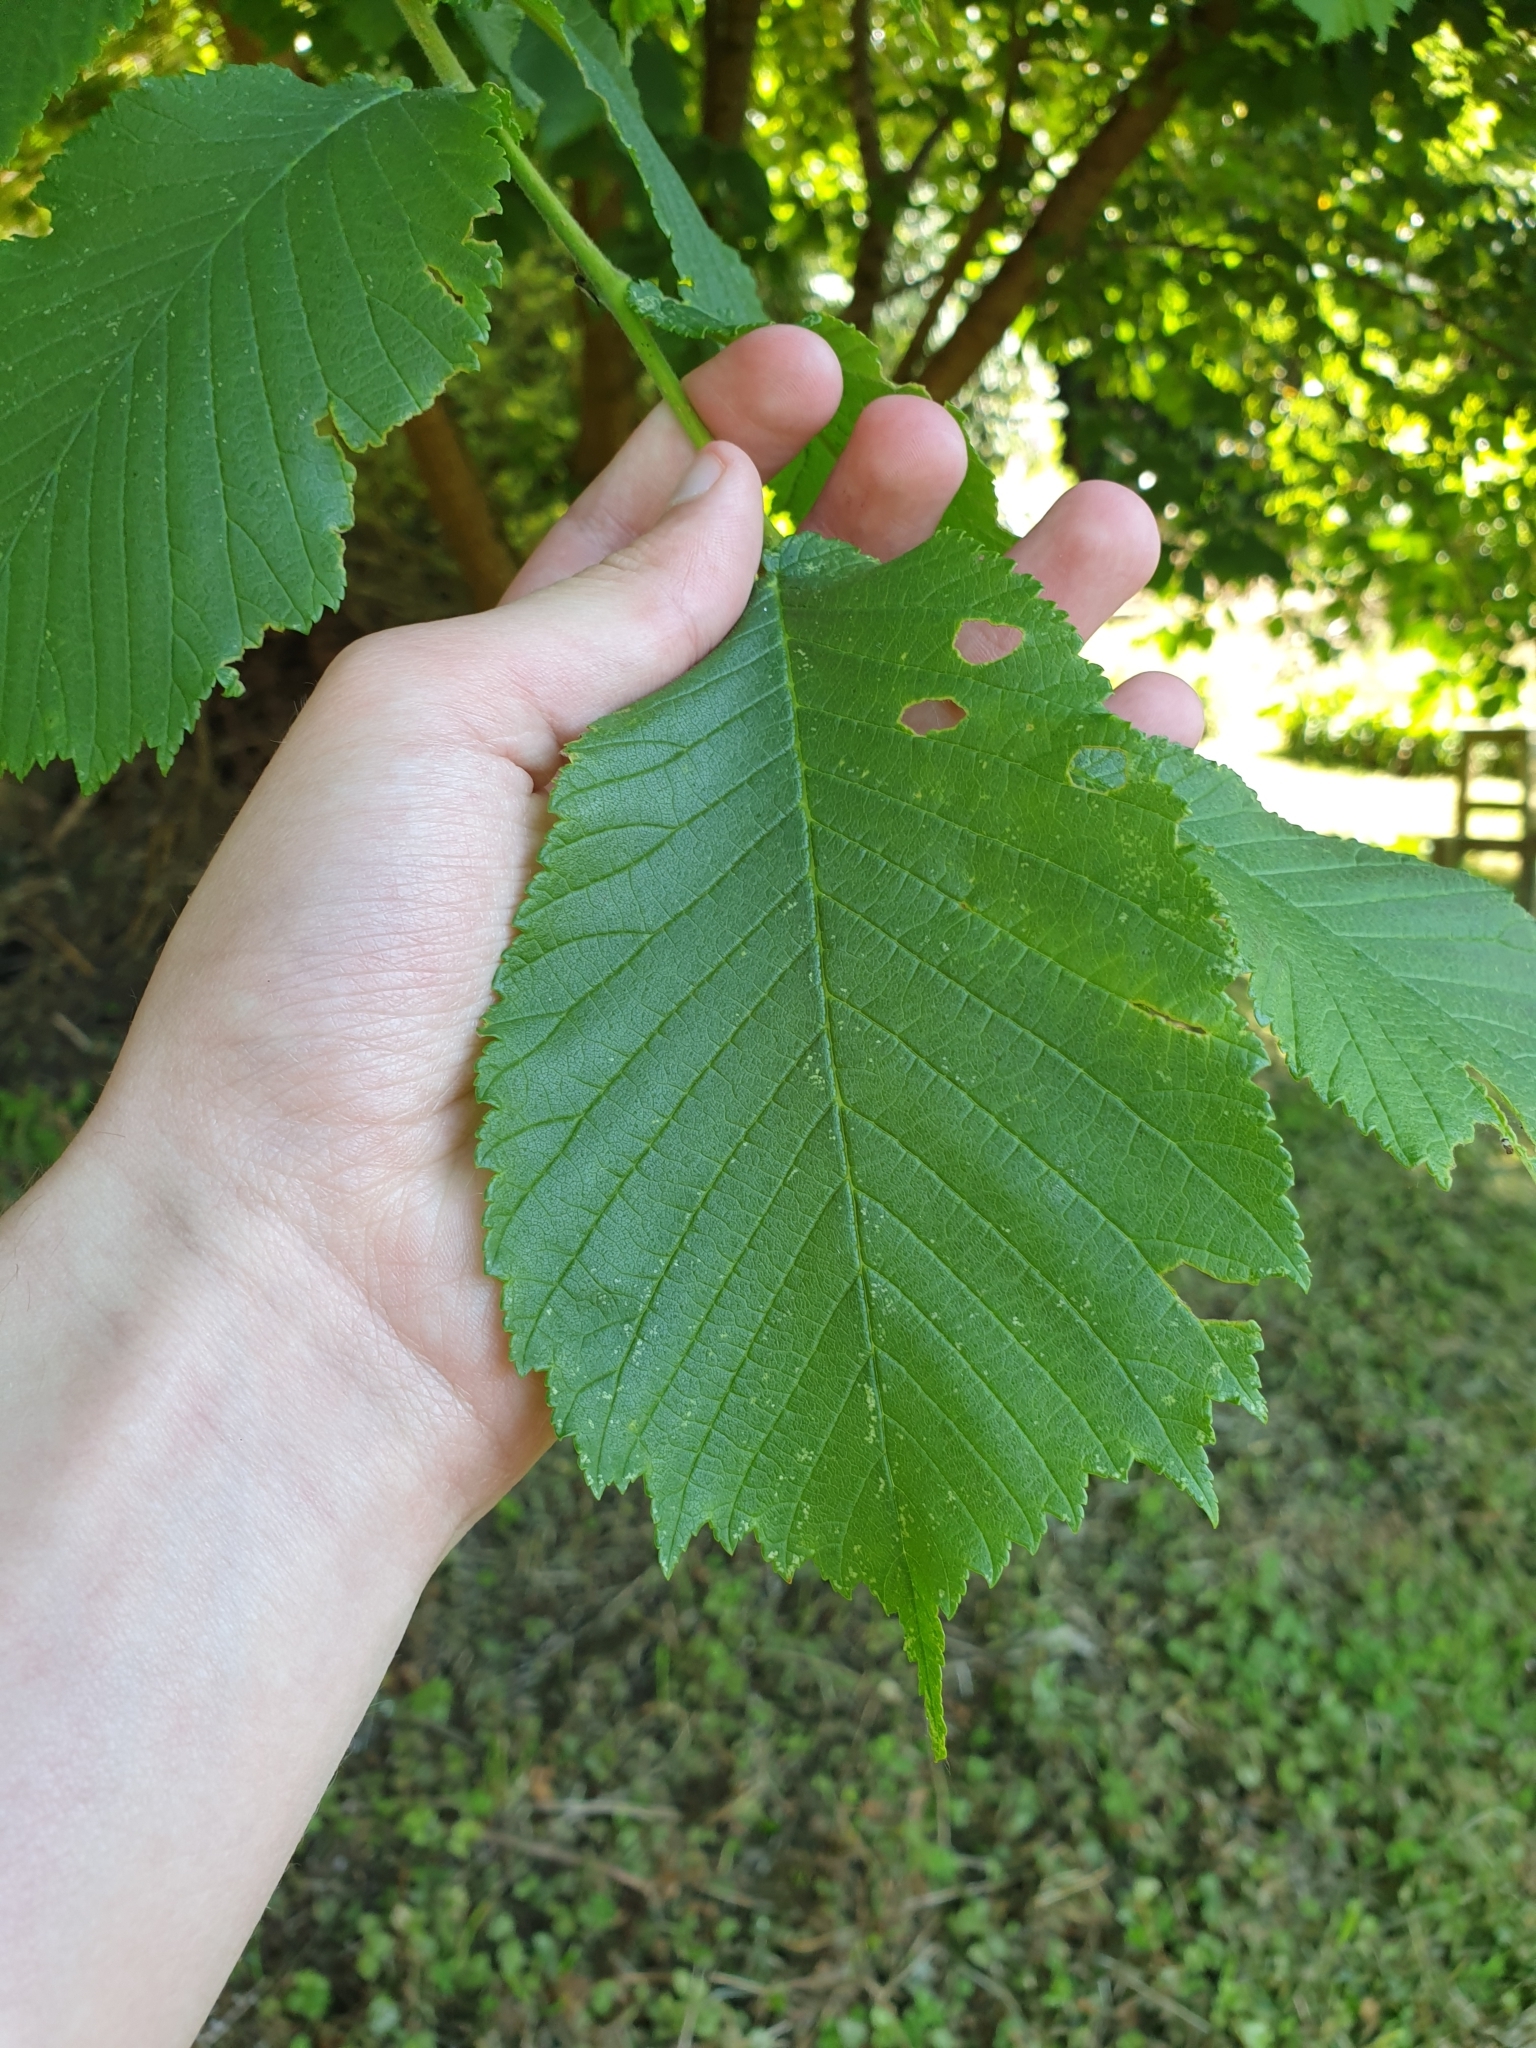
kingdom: Plantae
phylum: Tracheophyta
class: Magnoliopsida
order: Rosales
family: Ulmaceae
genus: Ulmus
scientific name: Ulmus glabra
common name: Wych elm
